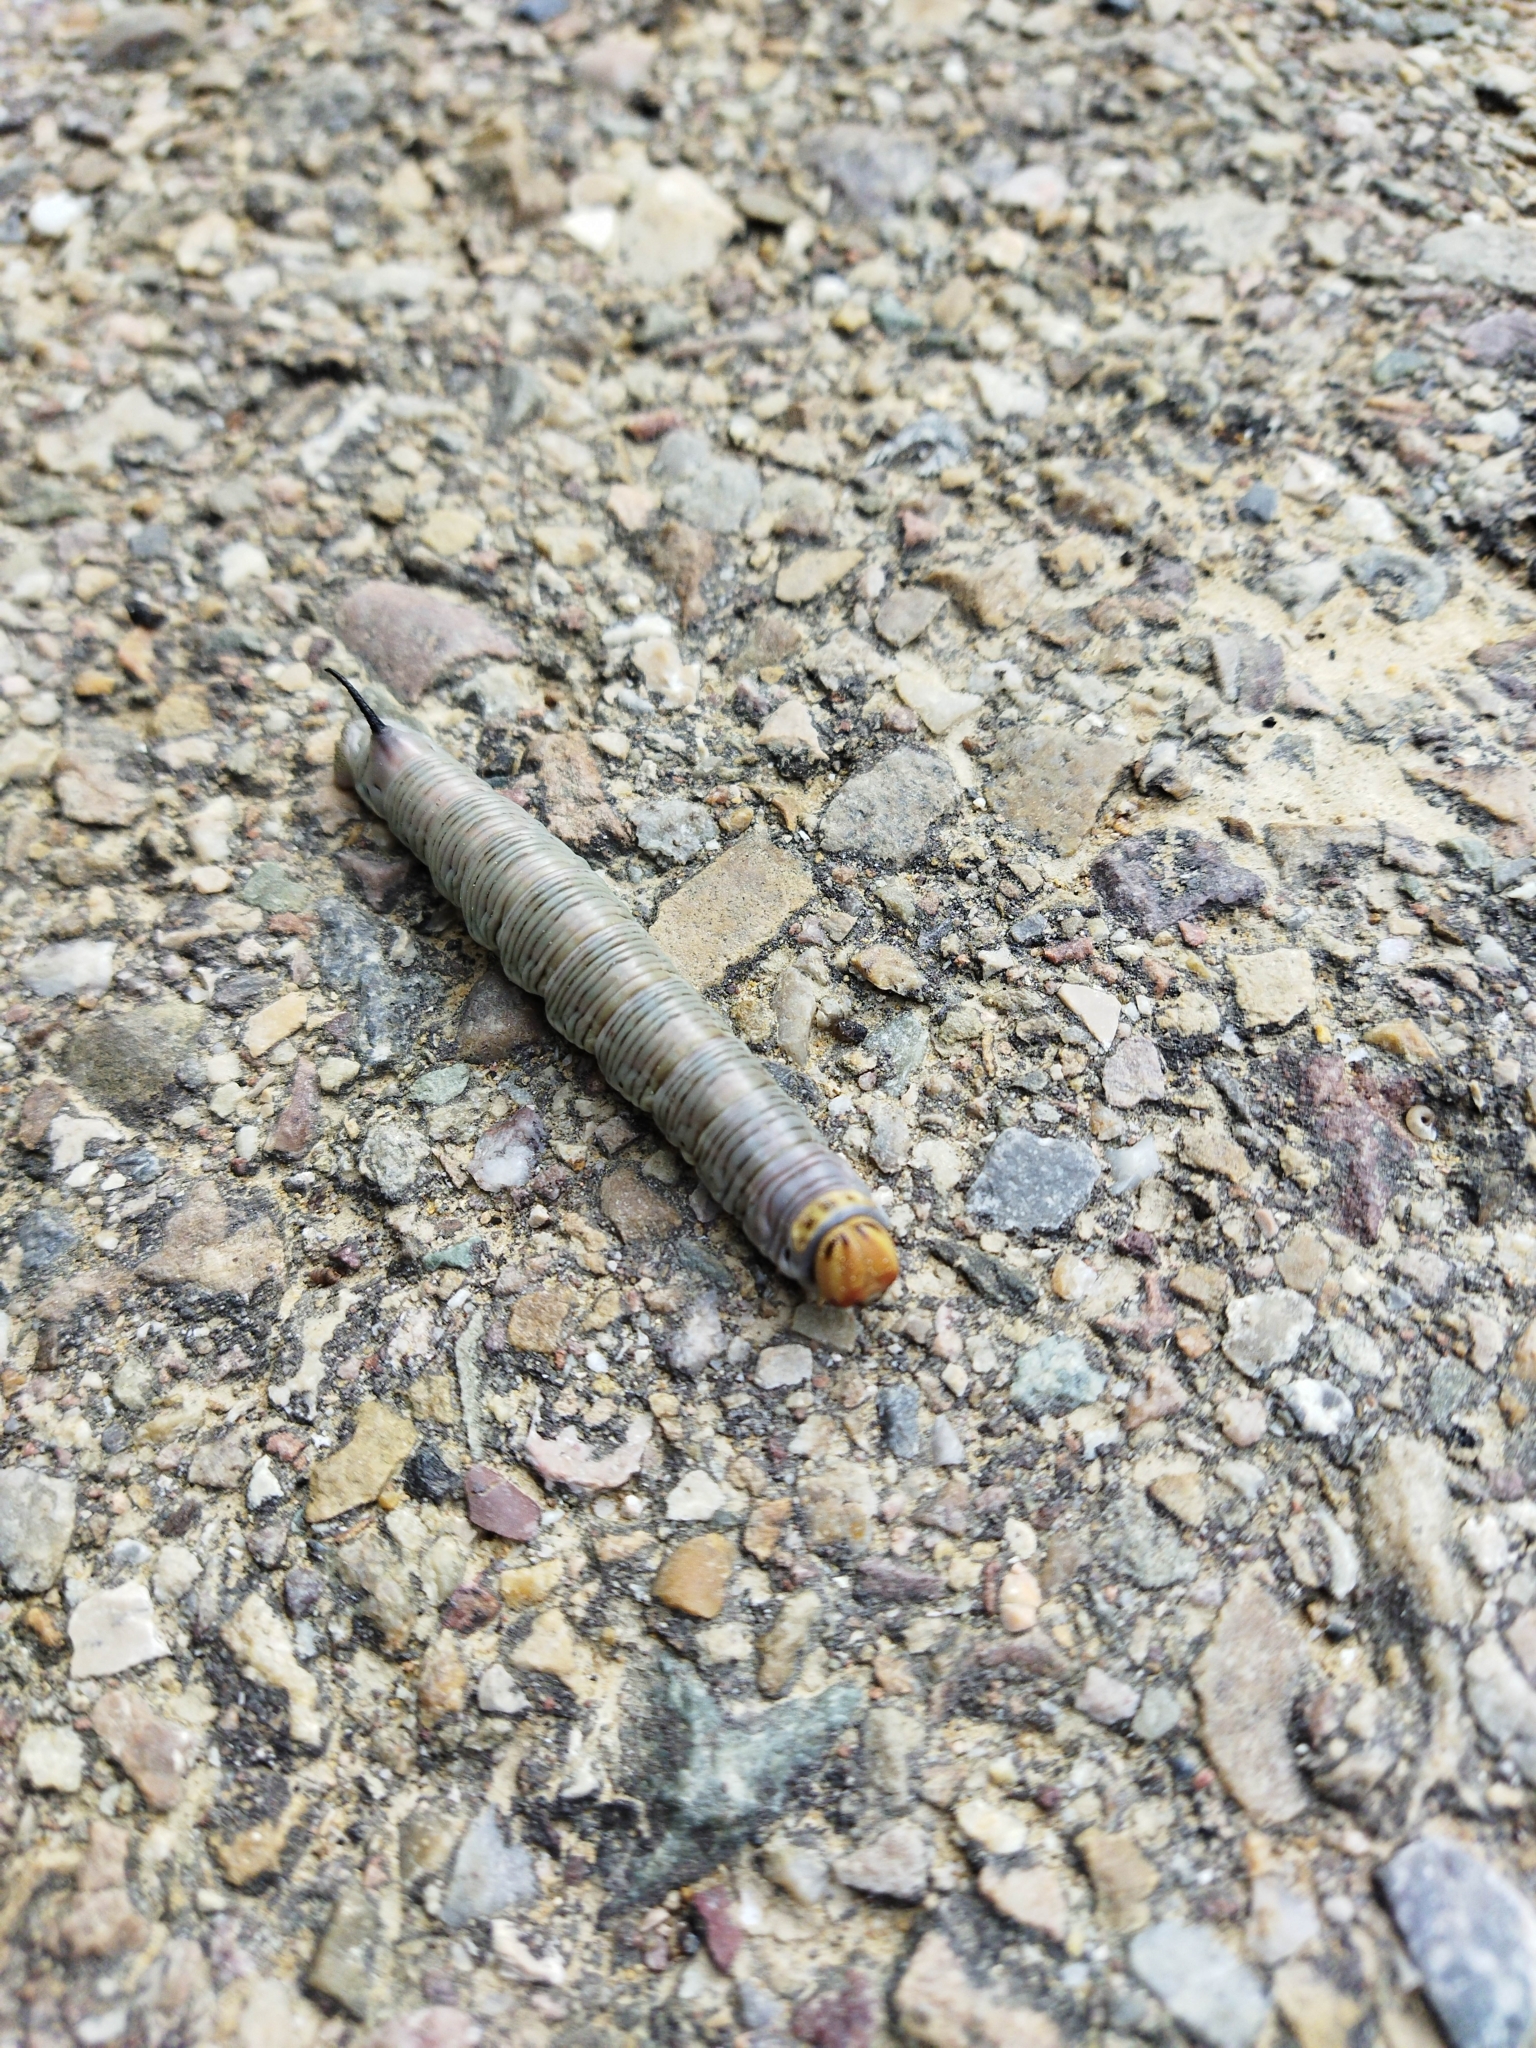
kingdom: Animalia
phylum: Arthropoda
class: Insecta
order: Lepidoptera
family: Sphingidae
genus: Sphinx
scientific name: Sphinx maurorum
